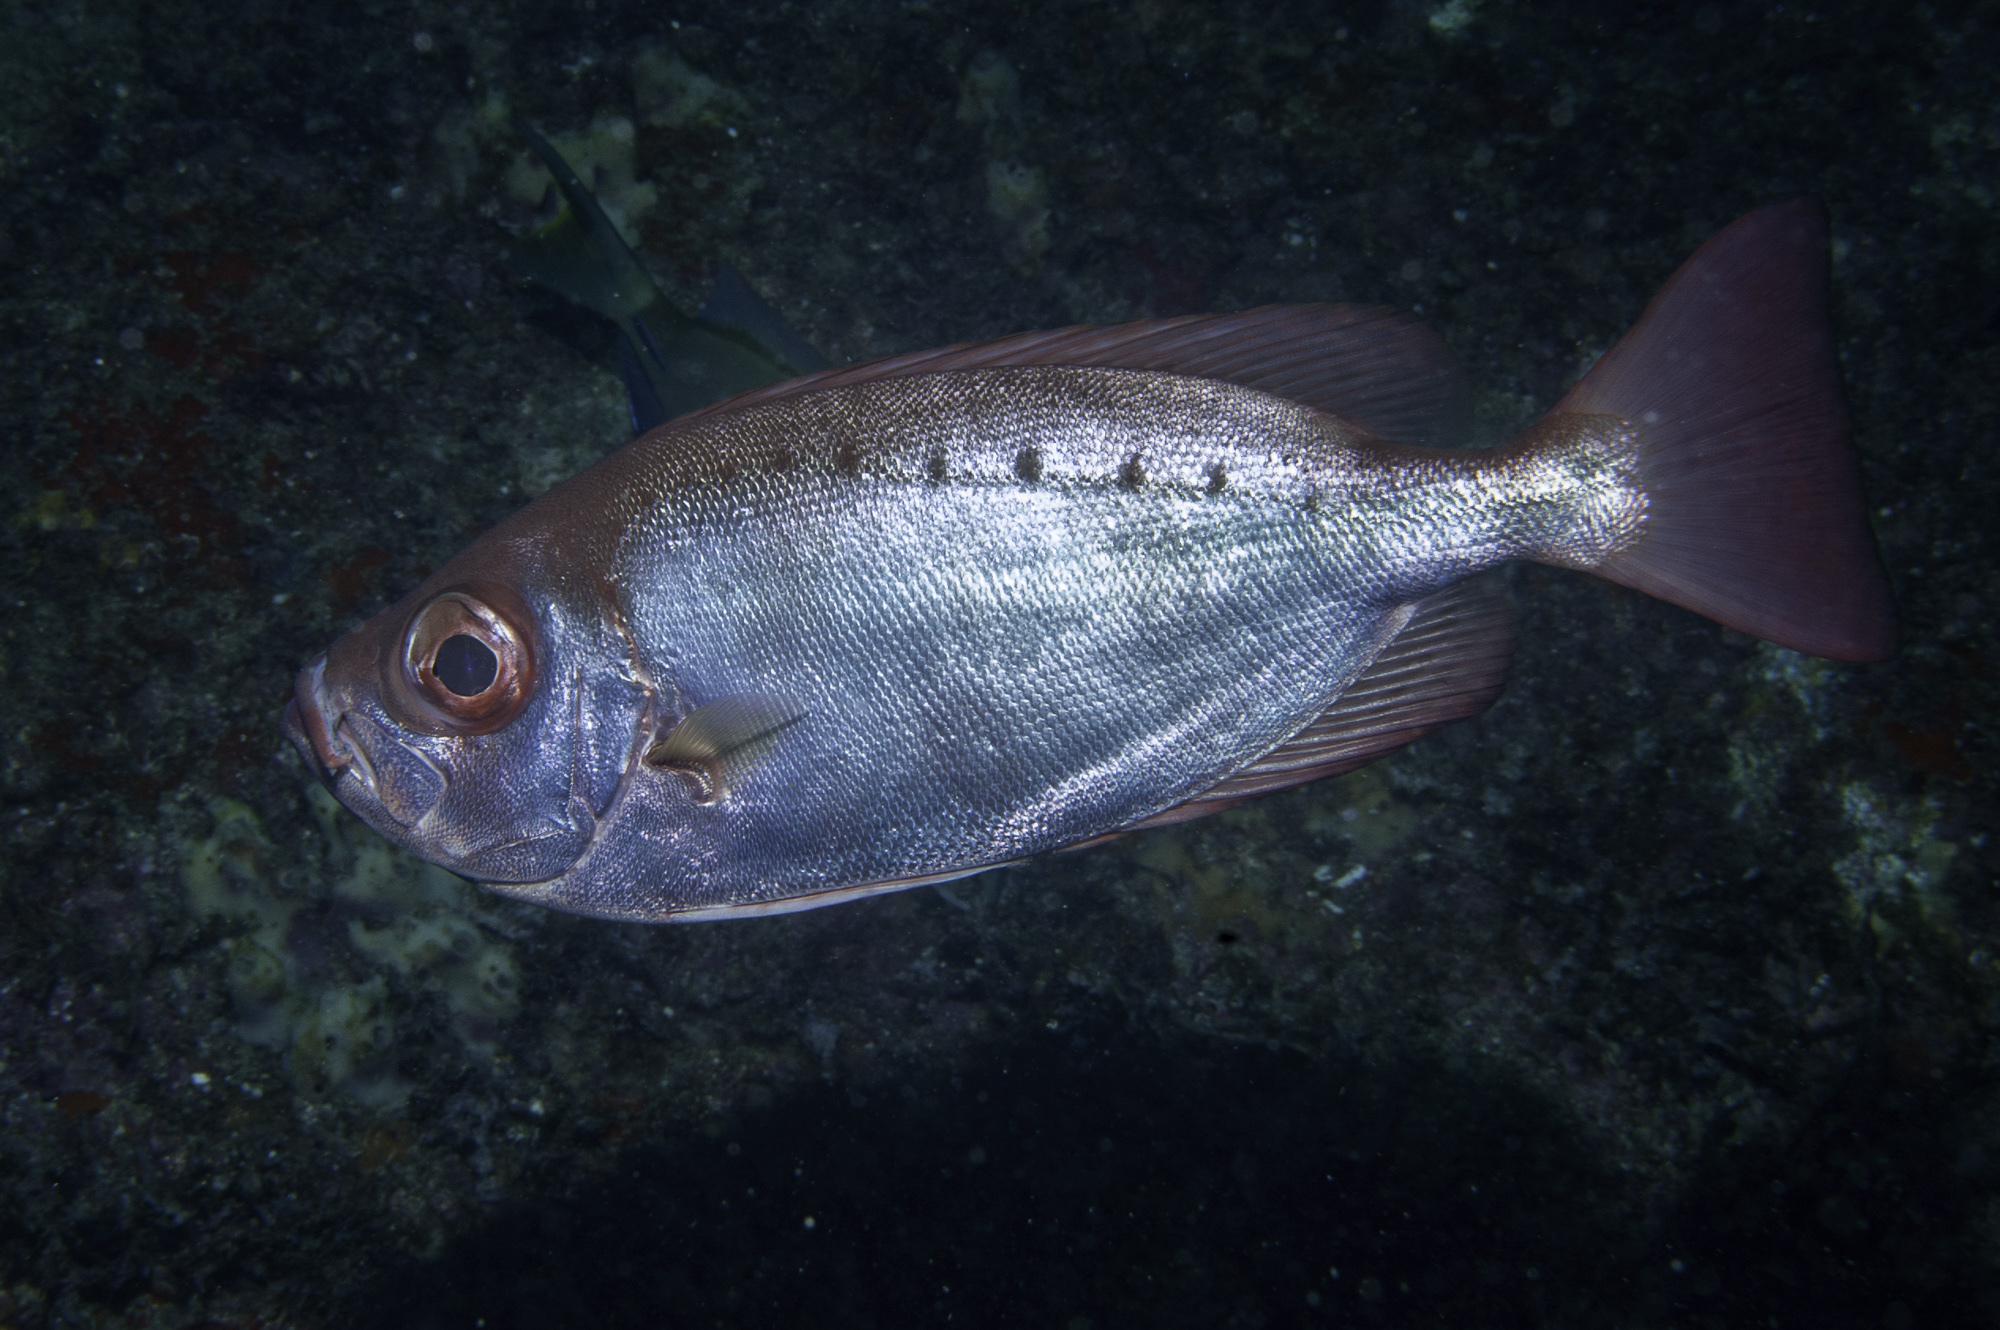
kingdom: Animalia
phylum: Chordata
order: Perciformes
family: Priacanthidae
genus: Priacanthus
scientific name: Priacanthus arenatus
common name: Atlantic bigeye
